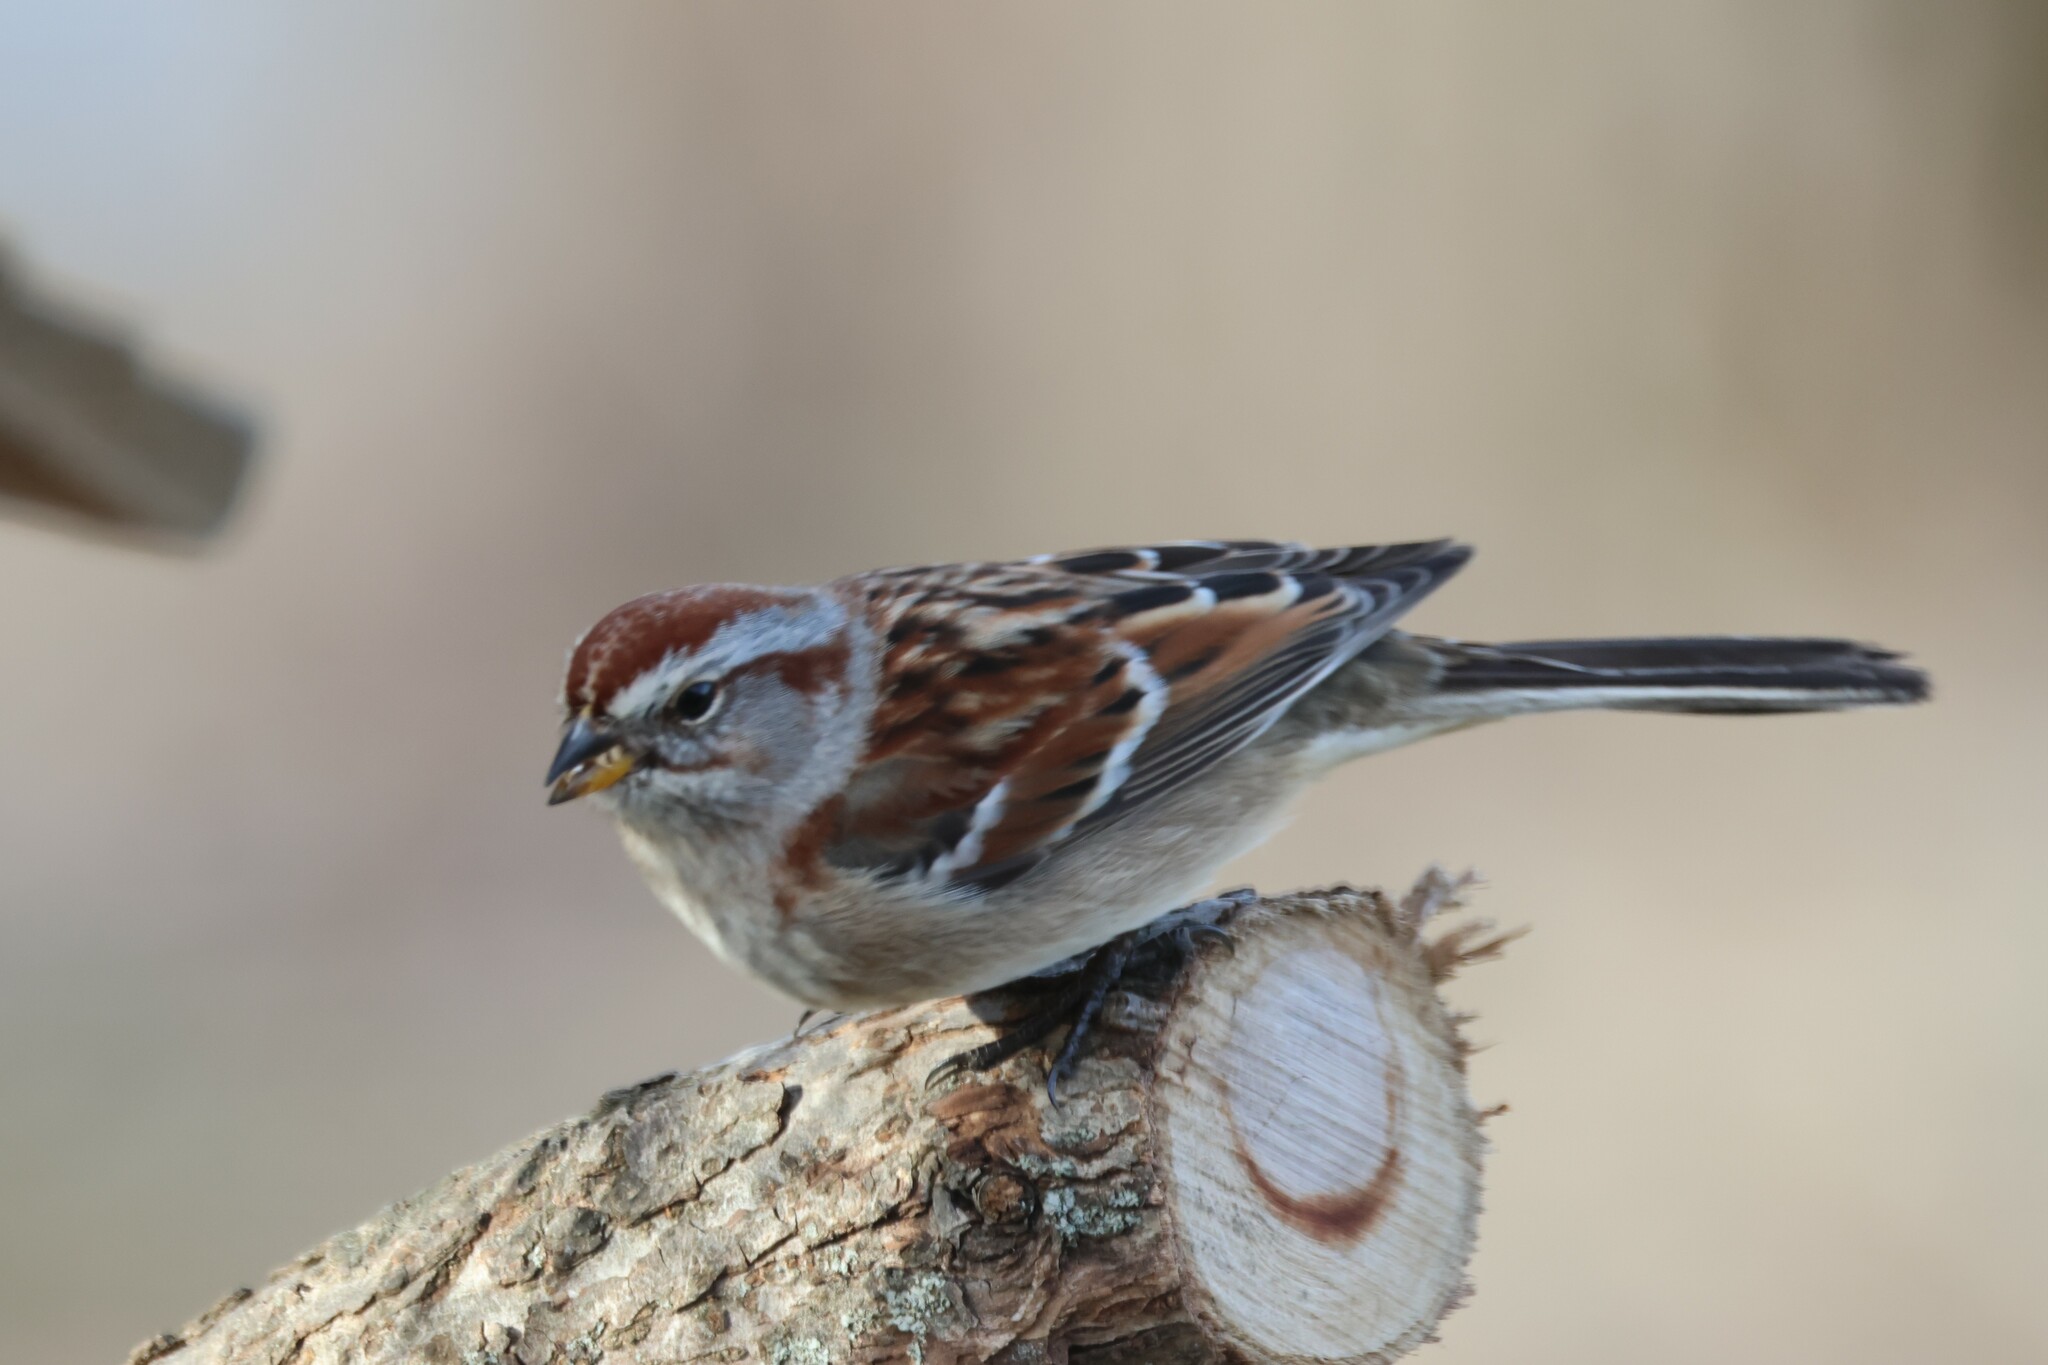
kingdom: Animalia
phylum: Chordata
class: Aves
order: Passeriformes
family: Passerellidae
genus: Spizelloides
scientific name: Spizelloides arborea
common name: American tree sparrow
